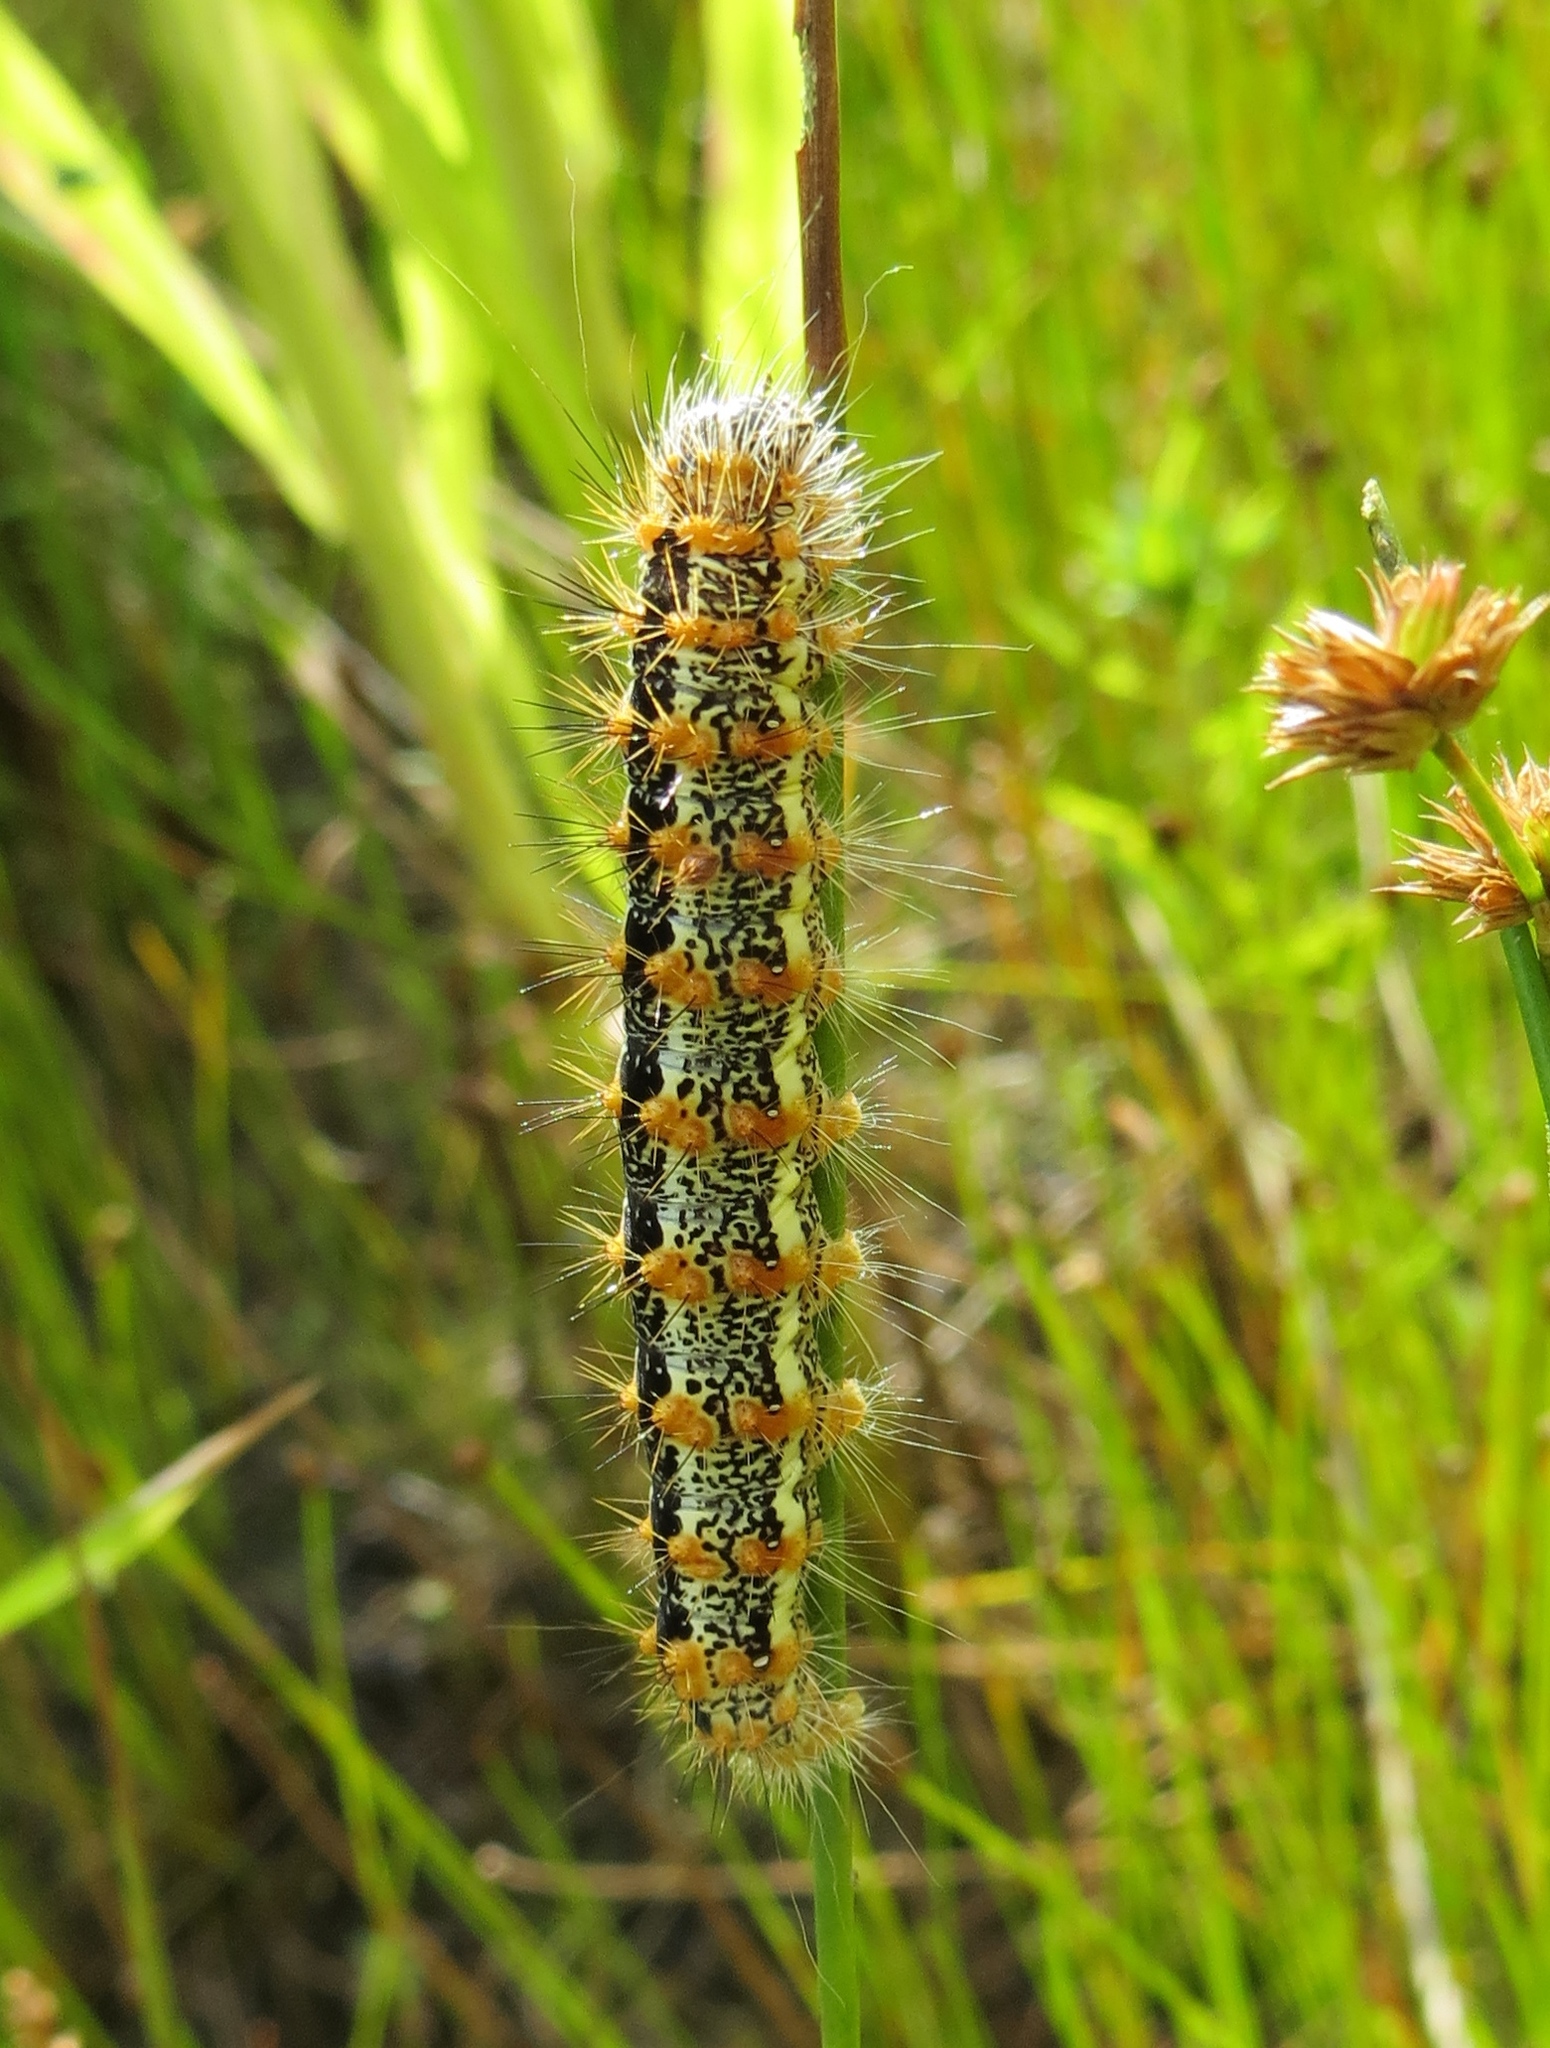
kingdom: Animalia
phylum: Arthropoda
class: Insecta
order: Lepidoptera
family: Noctuidae
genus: Acronicta
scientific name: Acronicta insularis
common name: Henry's marsh moth
